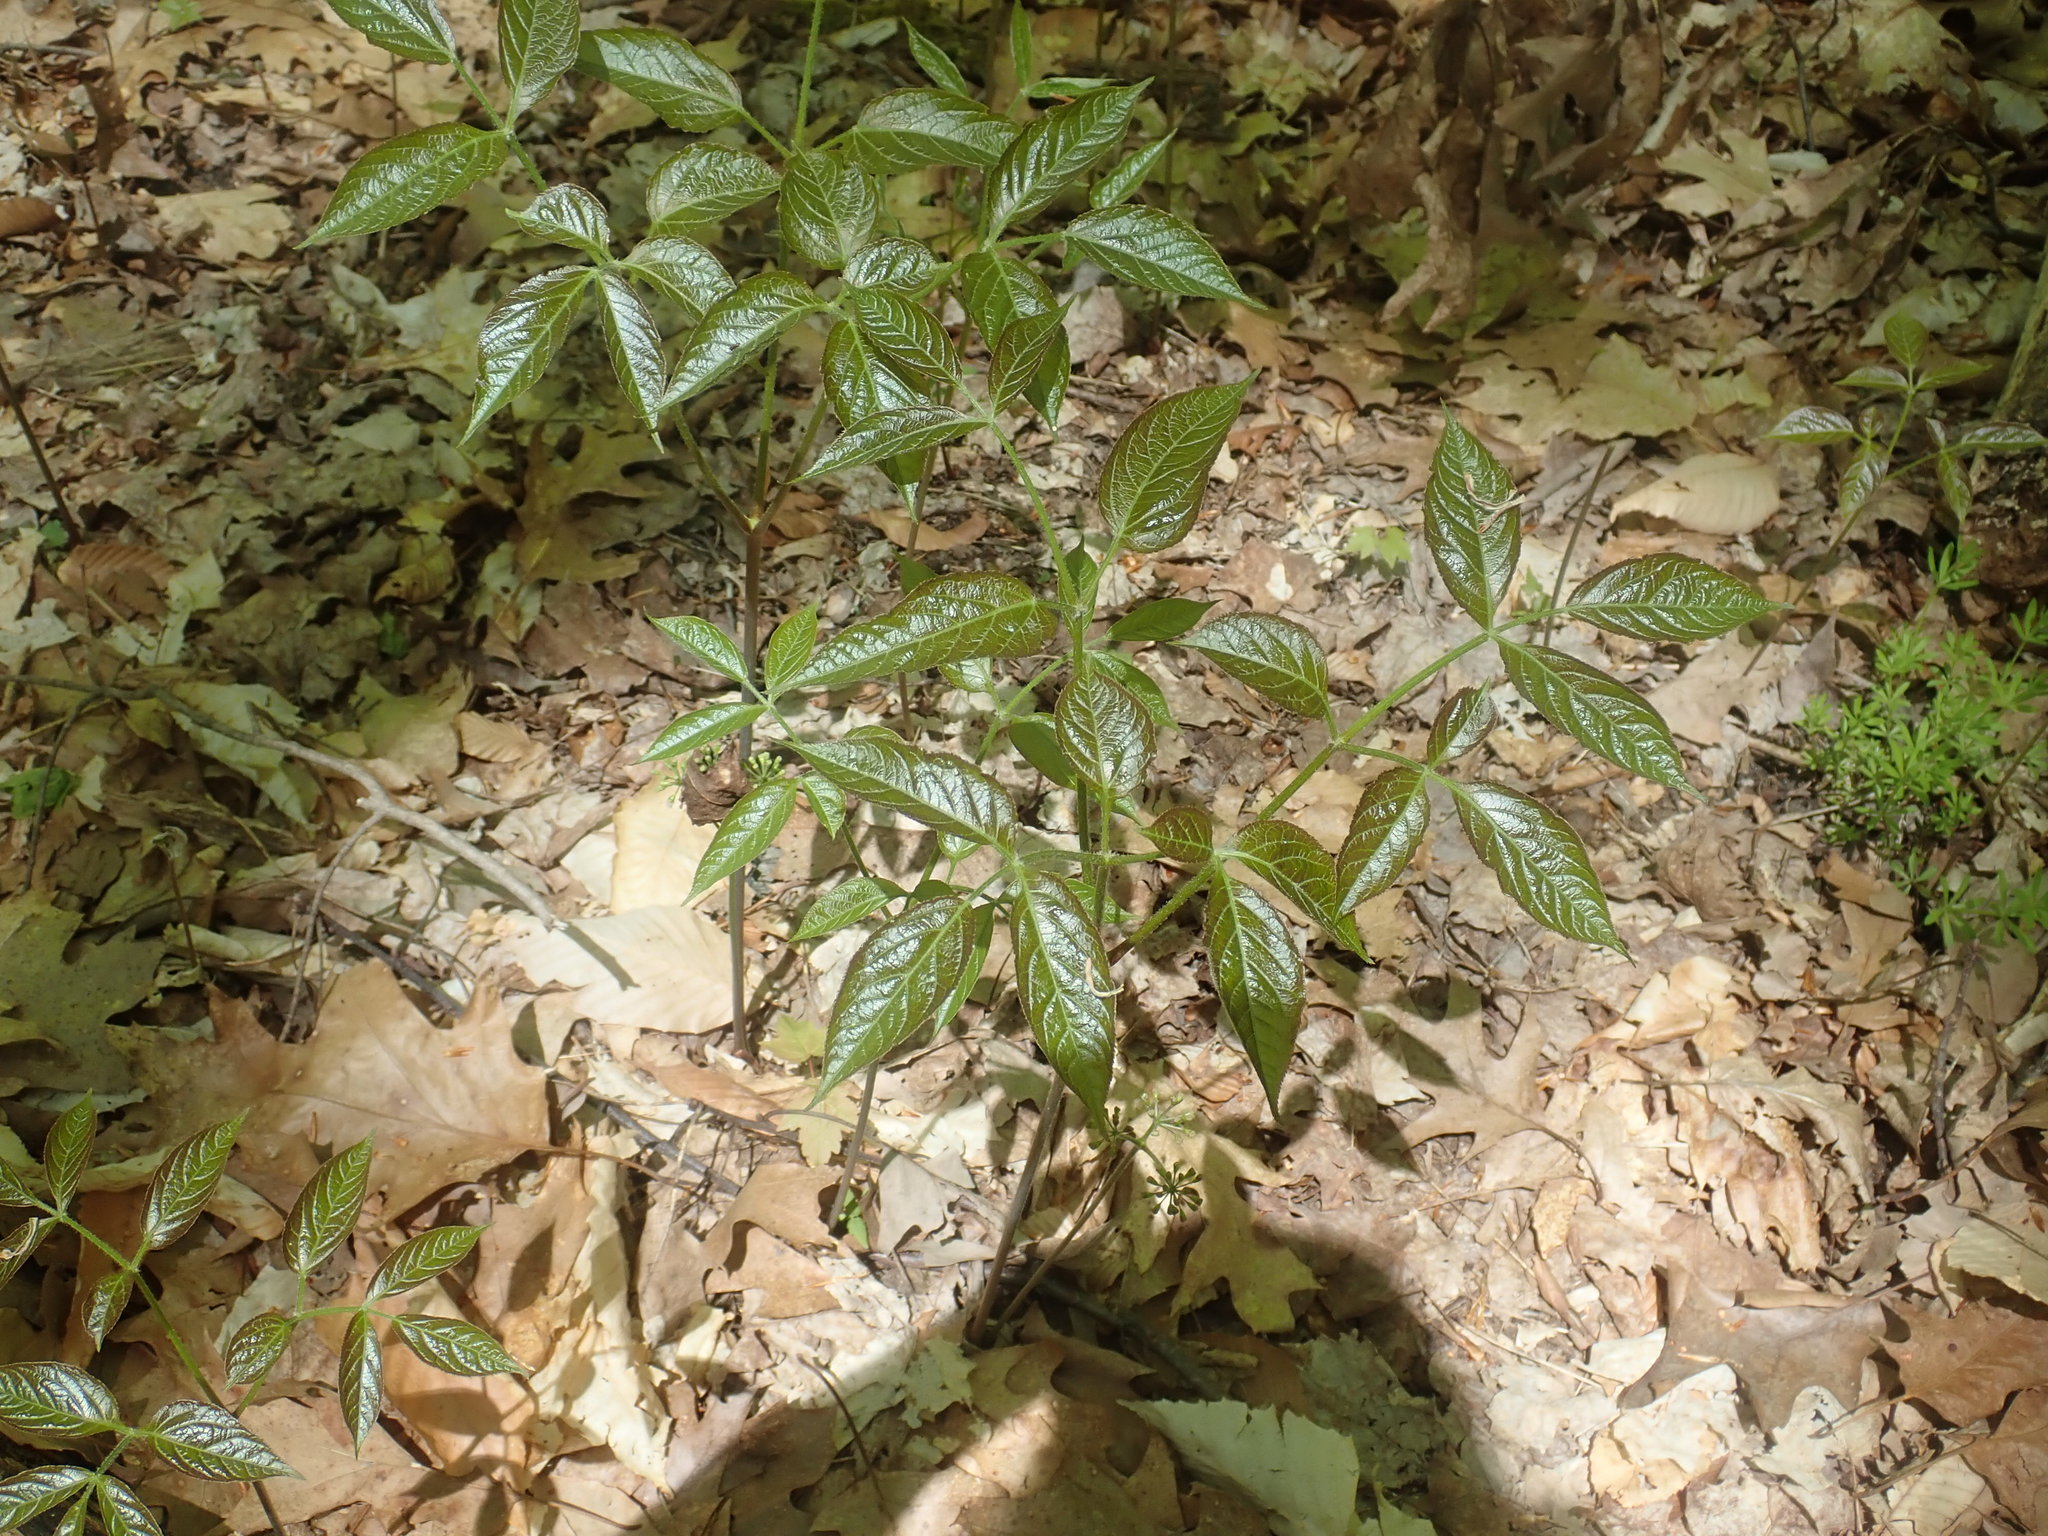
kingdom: Plantae
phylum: Tracheophyta
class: Magnoliopsida
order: Apiales
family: Araliaceae
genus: Aralia
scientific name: Aralia nudicaulis
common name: Wild sarsaparilla
